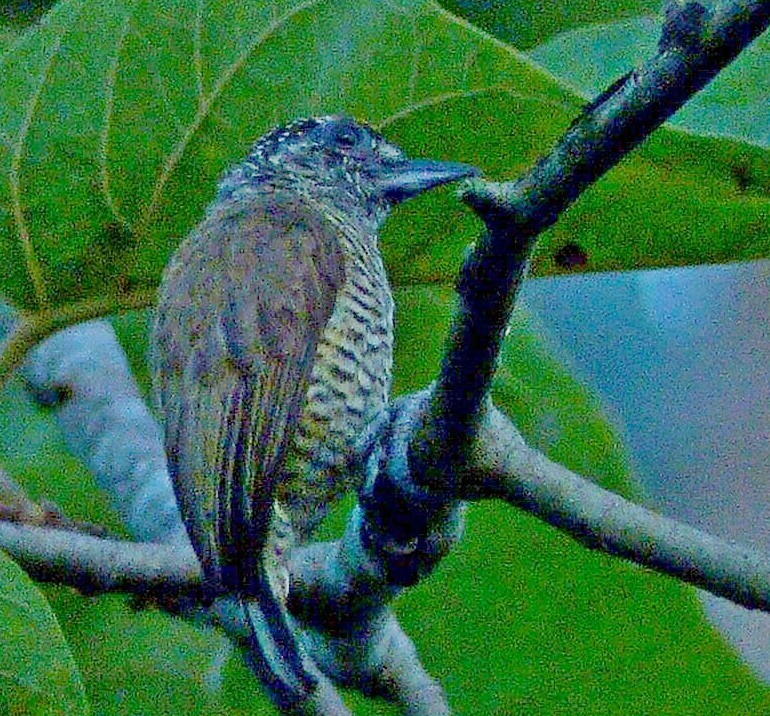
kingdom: Animalia
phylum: Chordata
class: Aves
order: Piciformes
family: Picidae
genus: Picumnus
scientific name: Picumnus exilis
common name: Golden-spangled piculet
